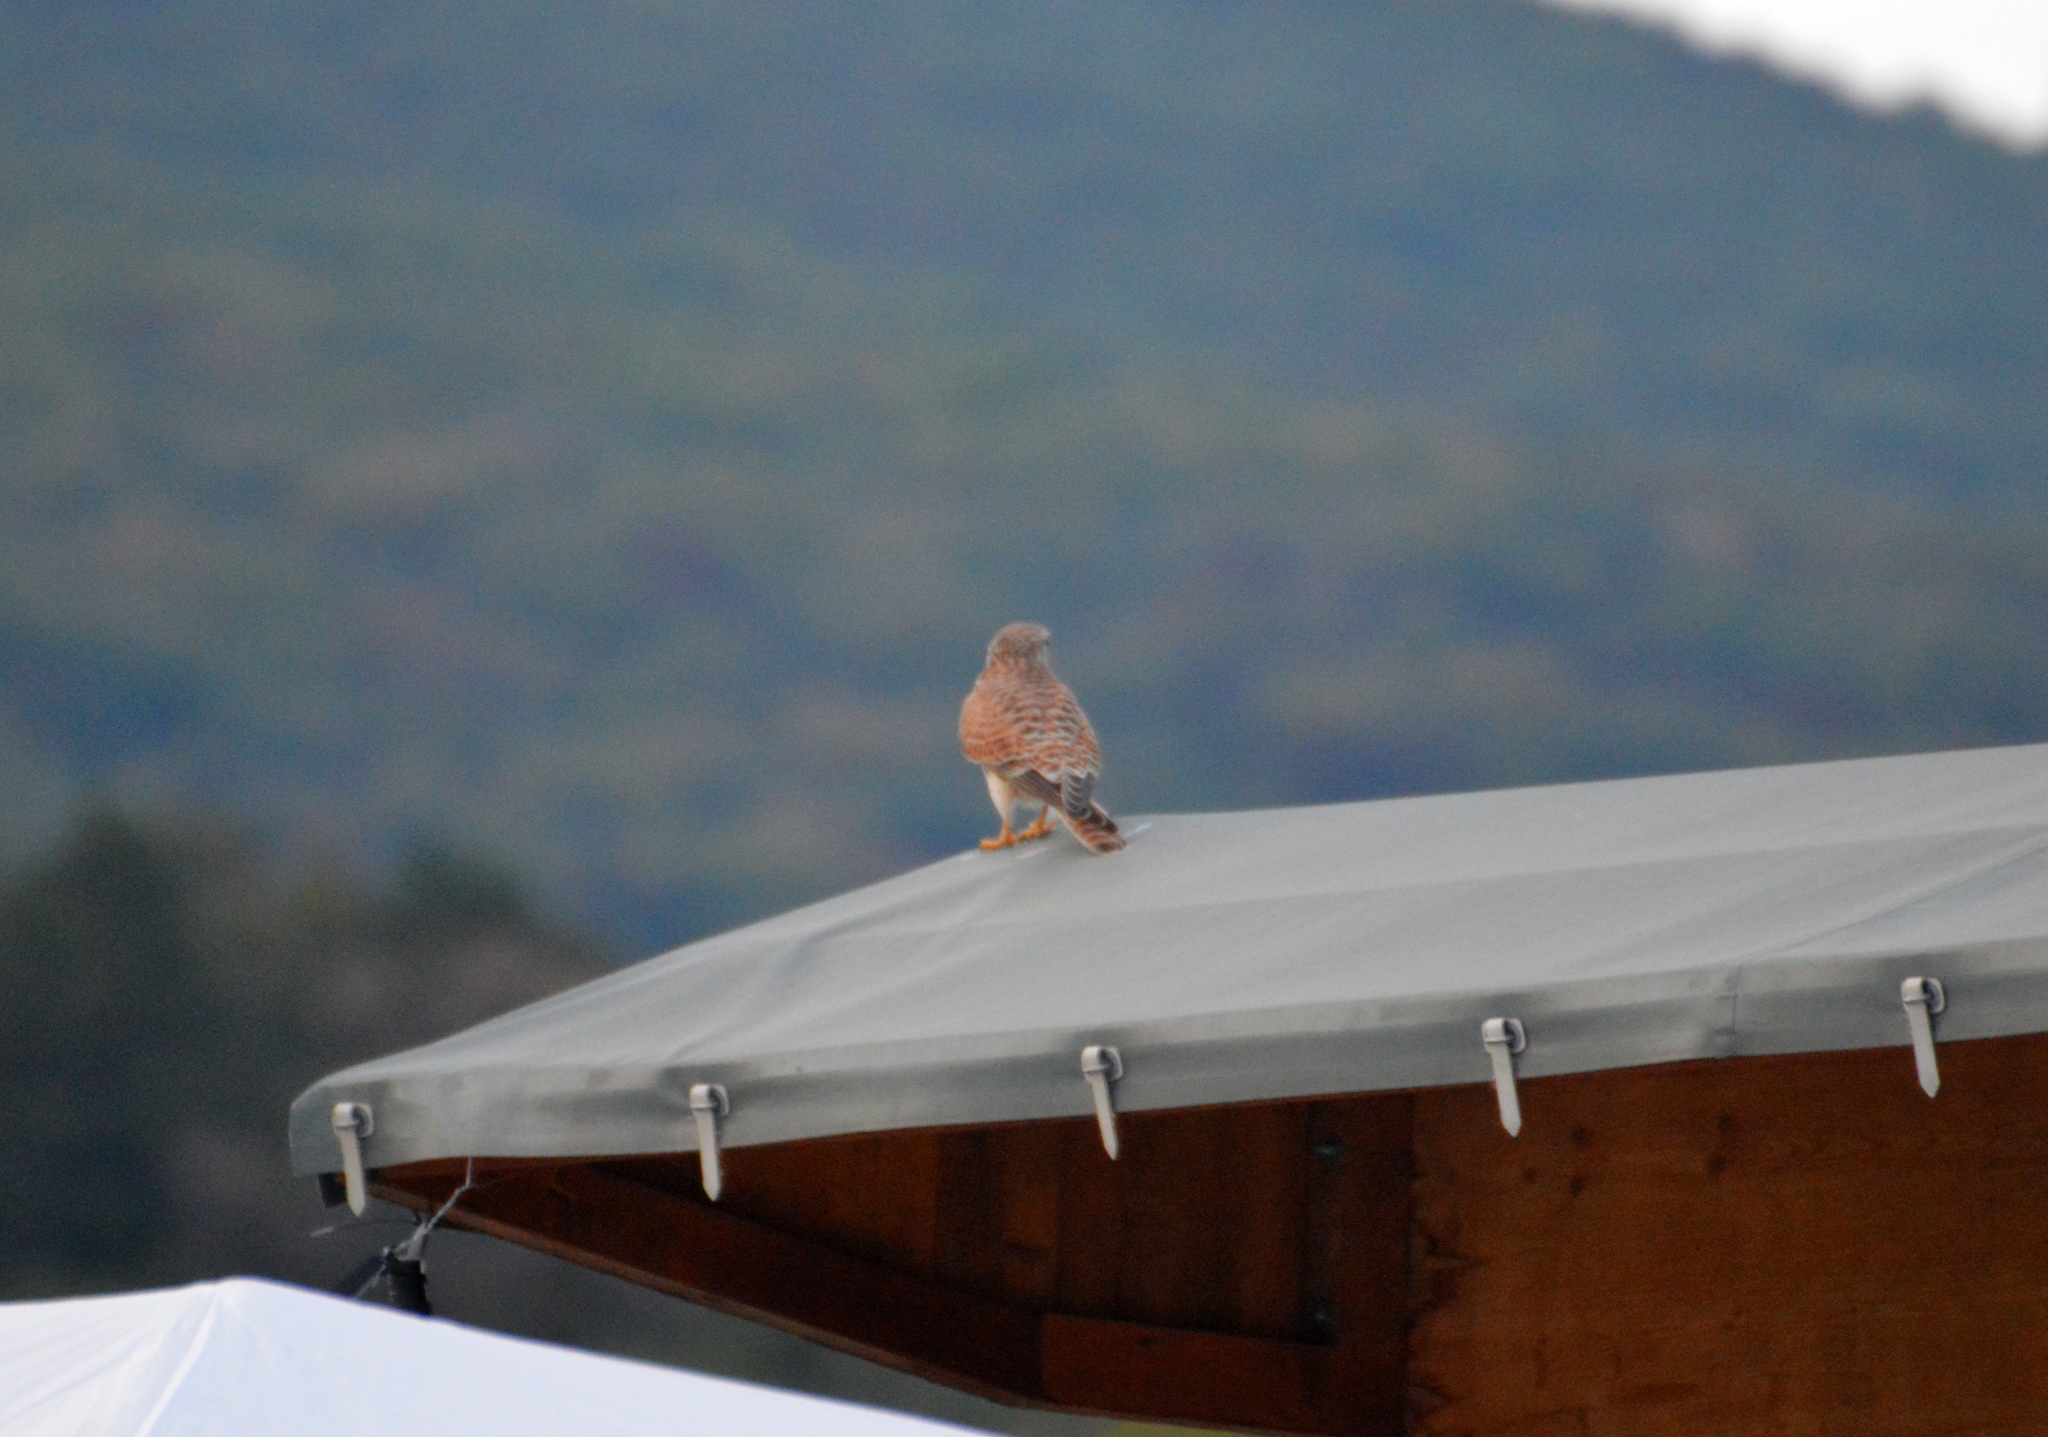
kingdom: Animalia
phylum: Chordata
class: Aves
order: Falconiformes
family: Falconidae
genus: Falco
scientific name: Falco tinnunculus
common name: Common kestrel
